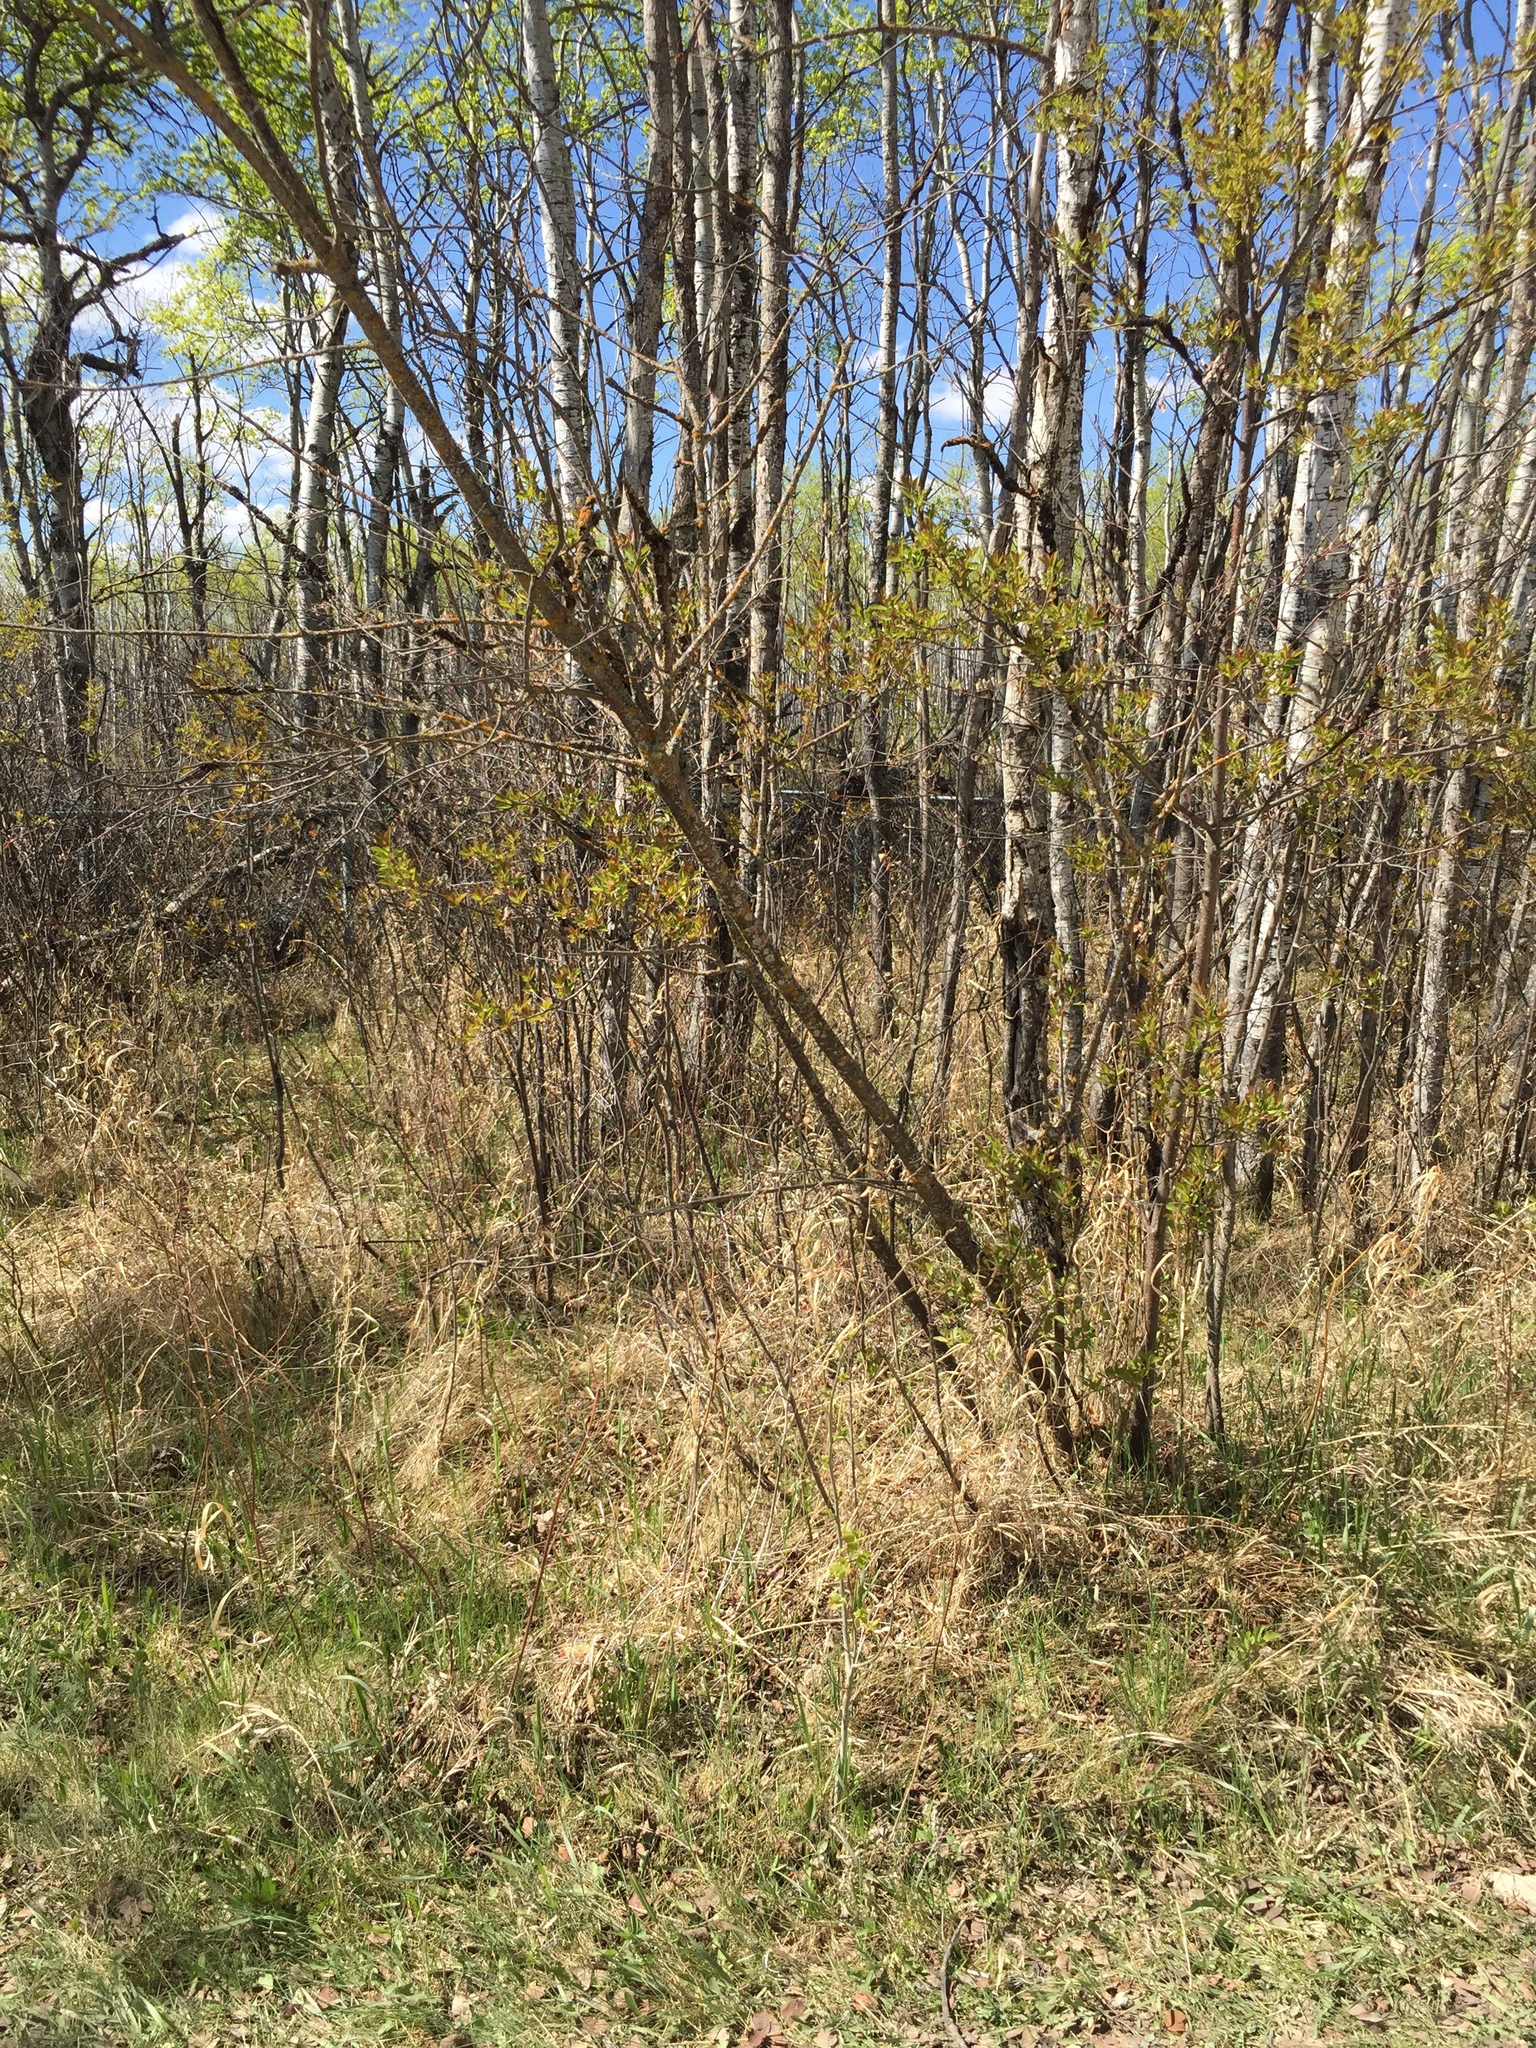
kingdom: Plantae
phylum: Tracheophyta
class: Magnoliopsida
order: Rosales
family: Rosaceae
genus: Prunus
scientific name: Prunus virginiana
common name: Chokecherry
